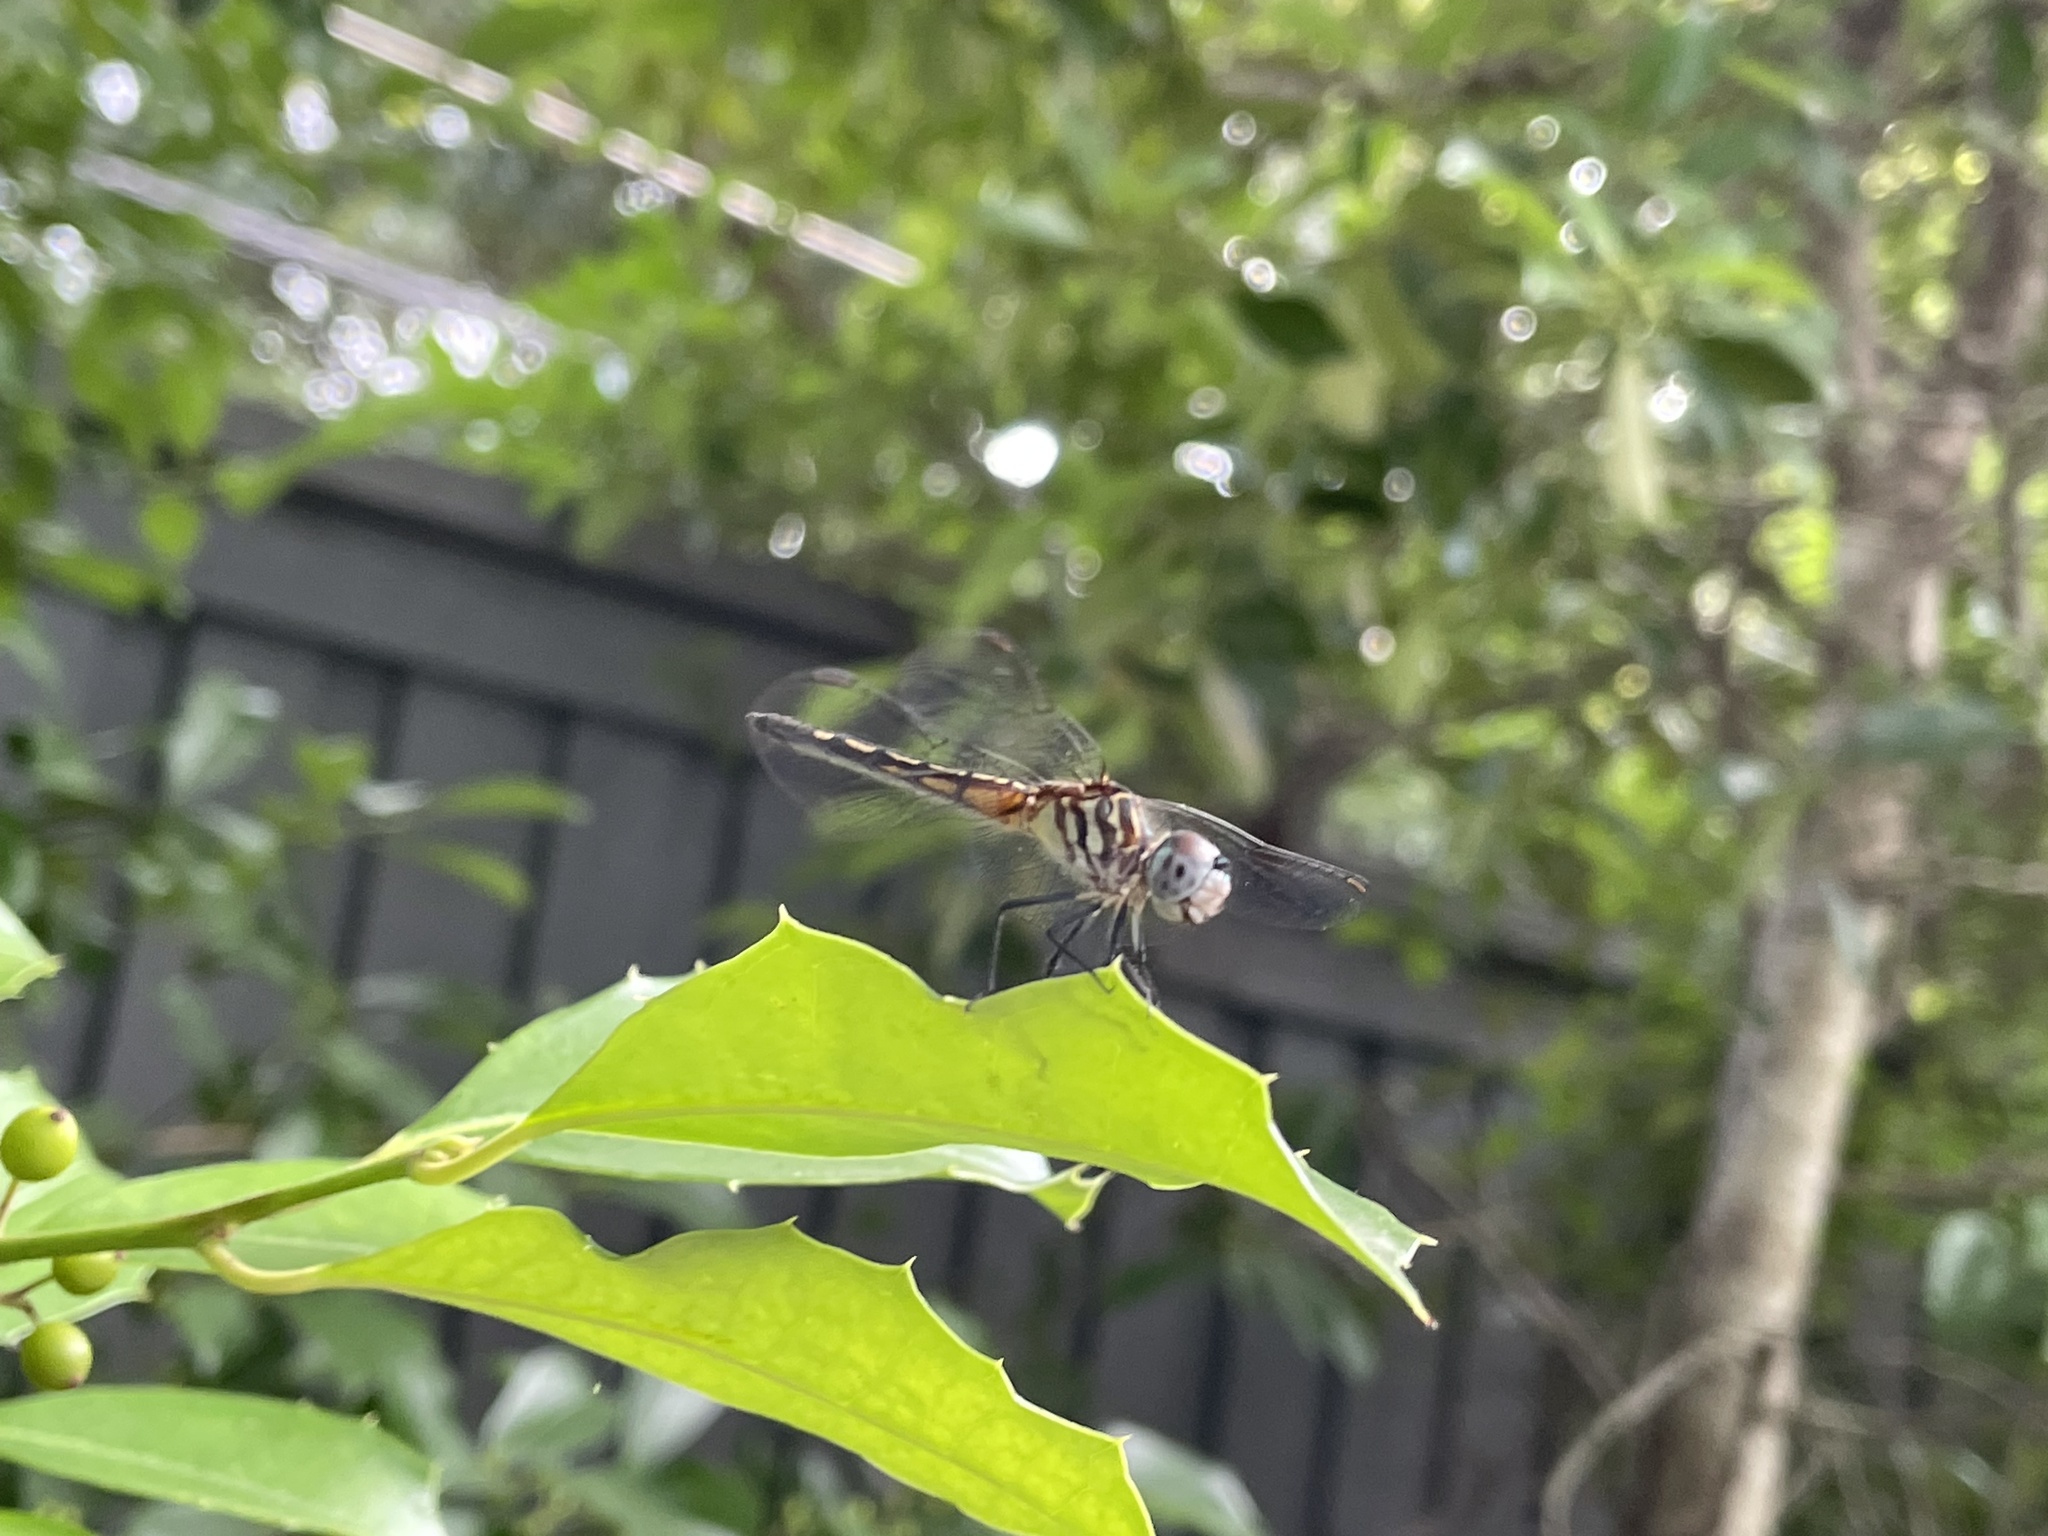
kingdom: Animalia
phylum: Arthropoda
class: Insecta
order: Odonata
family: Libellulidae
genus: Pachydiplax
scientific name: Pachydiplax longipennis
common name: Blue dasher
